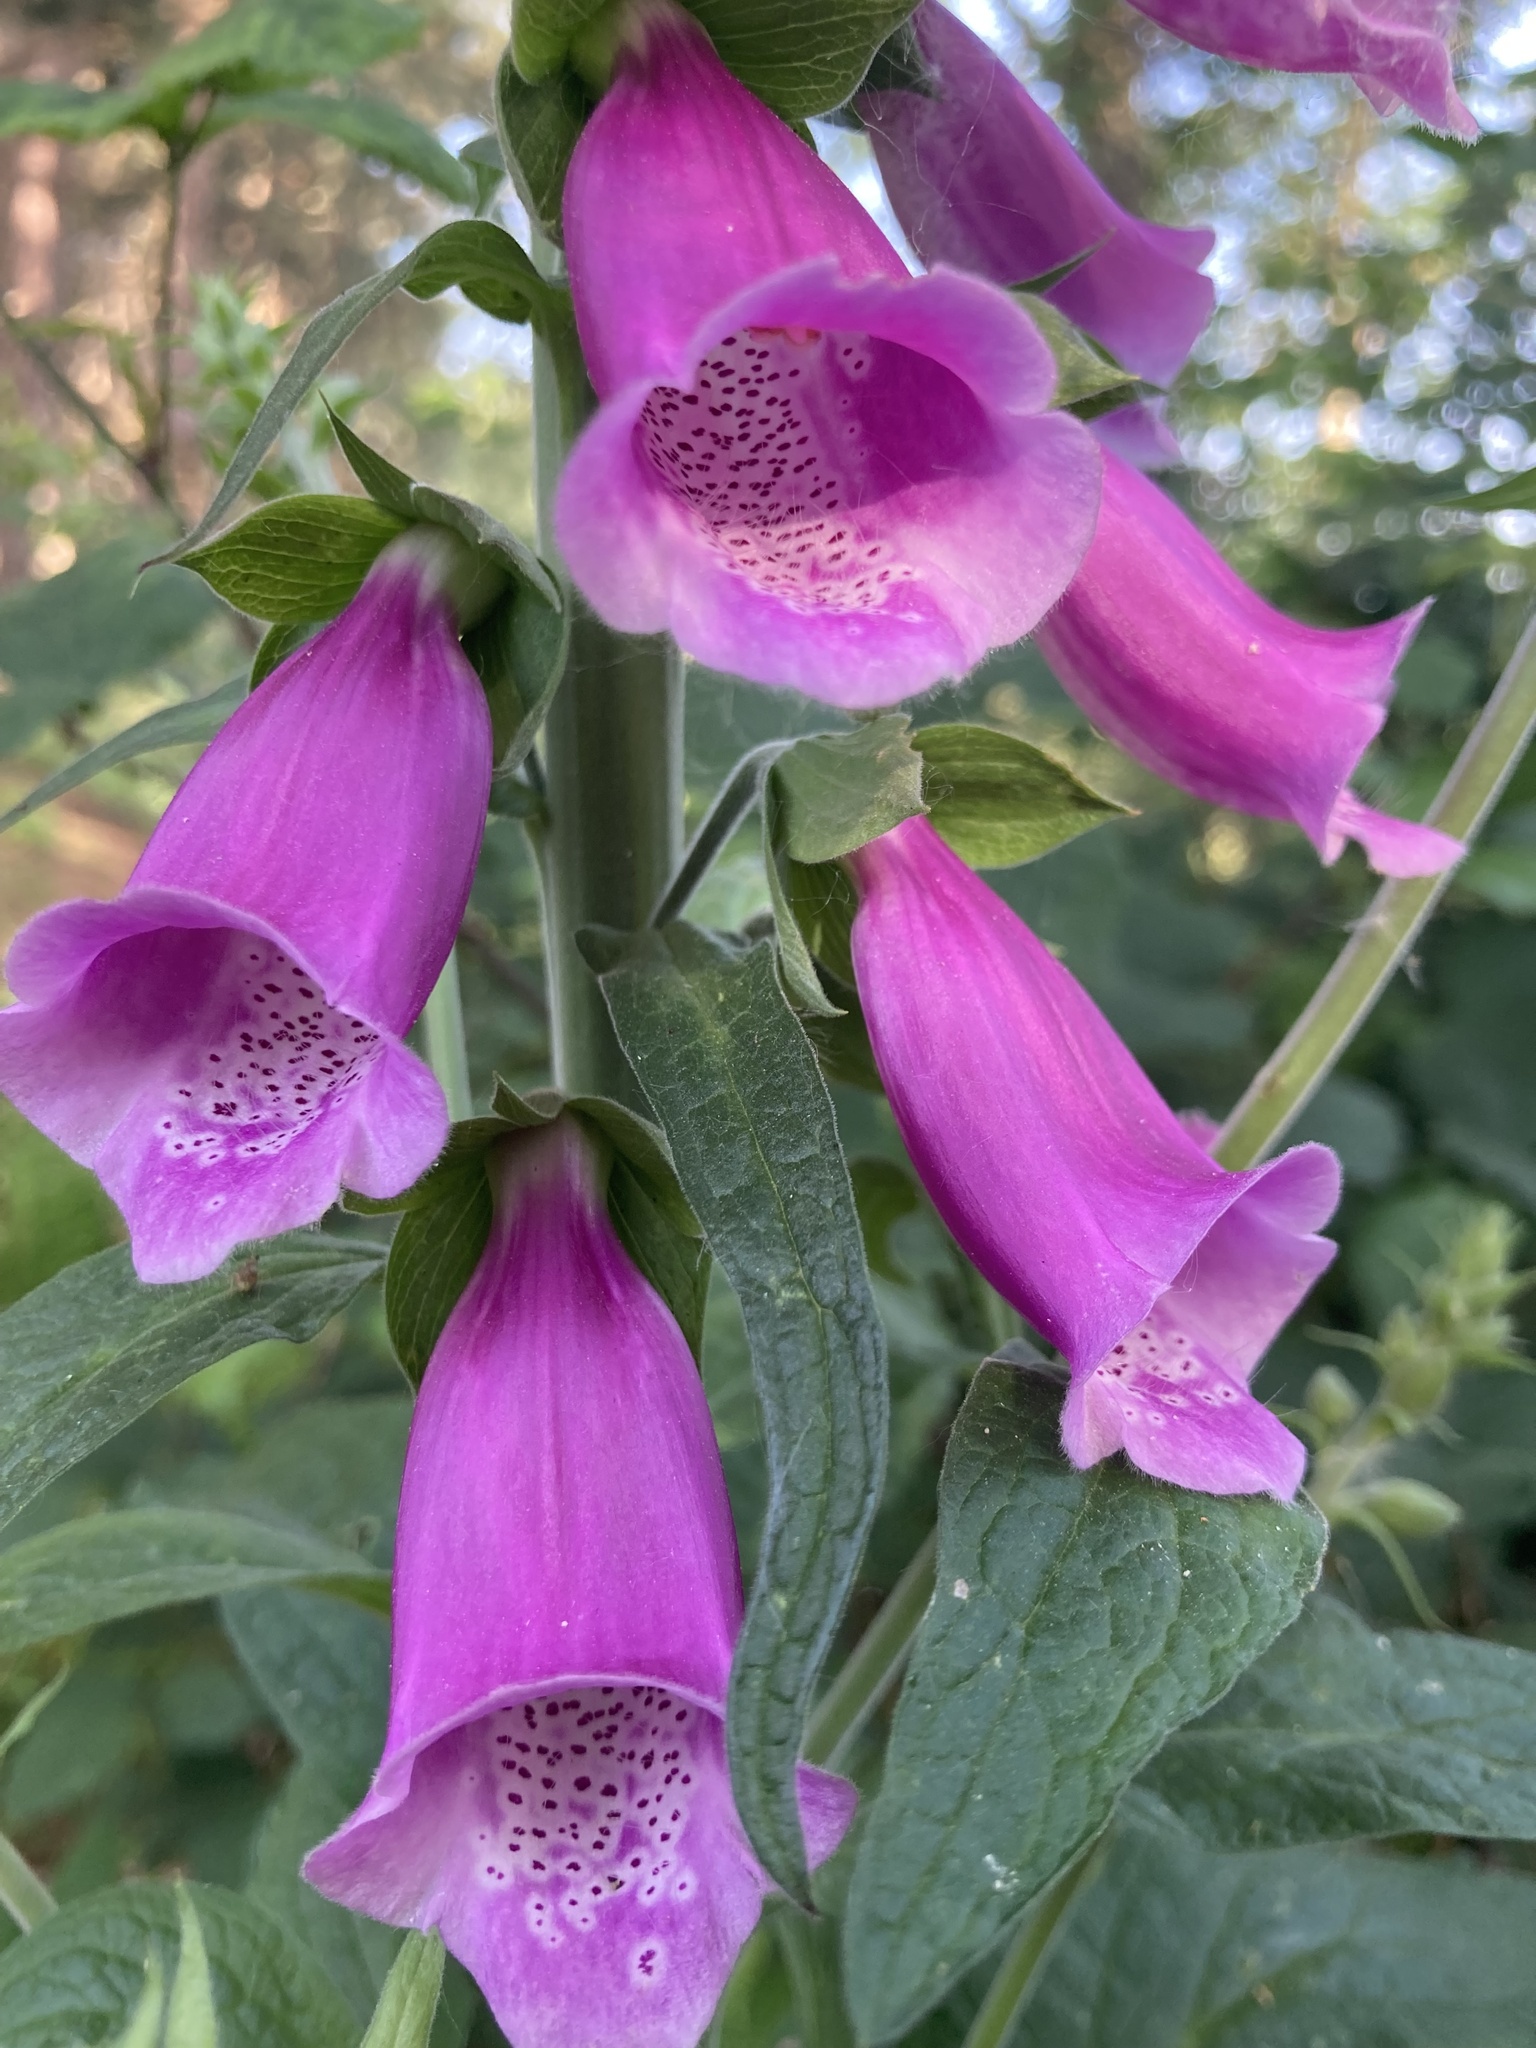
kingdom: Plantae
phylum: Tracheophyta
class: Magnoliopsida
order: Lamiales
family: Plantaginaceae
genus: Digitalis
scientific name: Digitalis purpurea
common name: Foxglove
